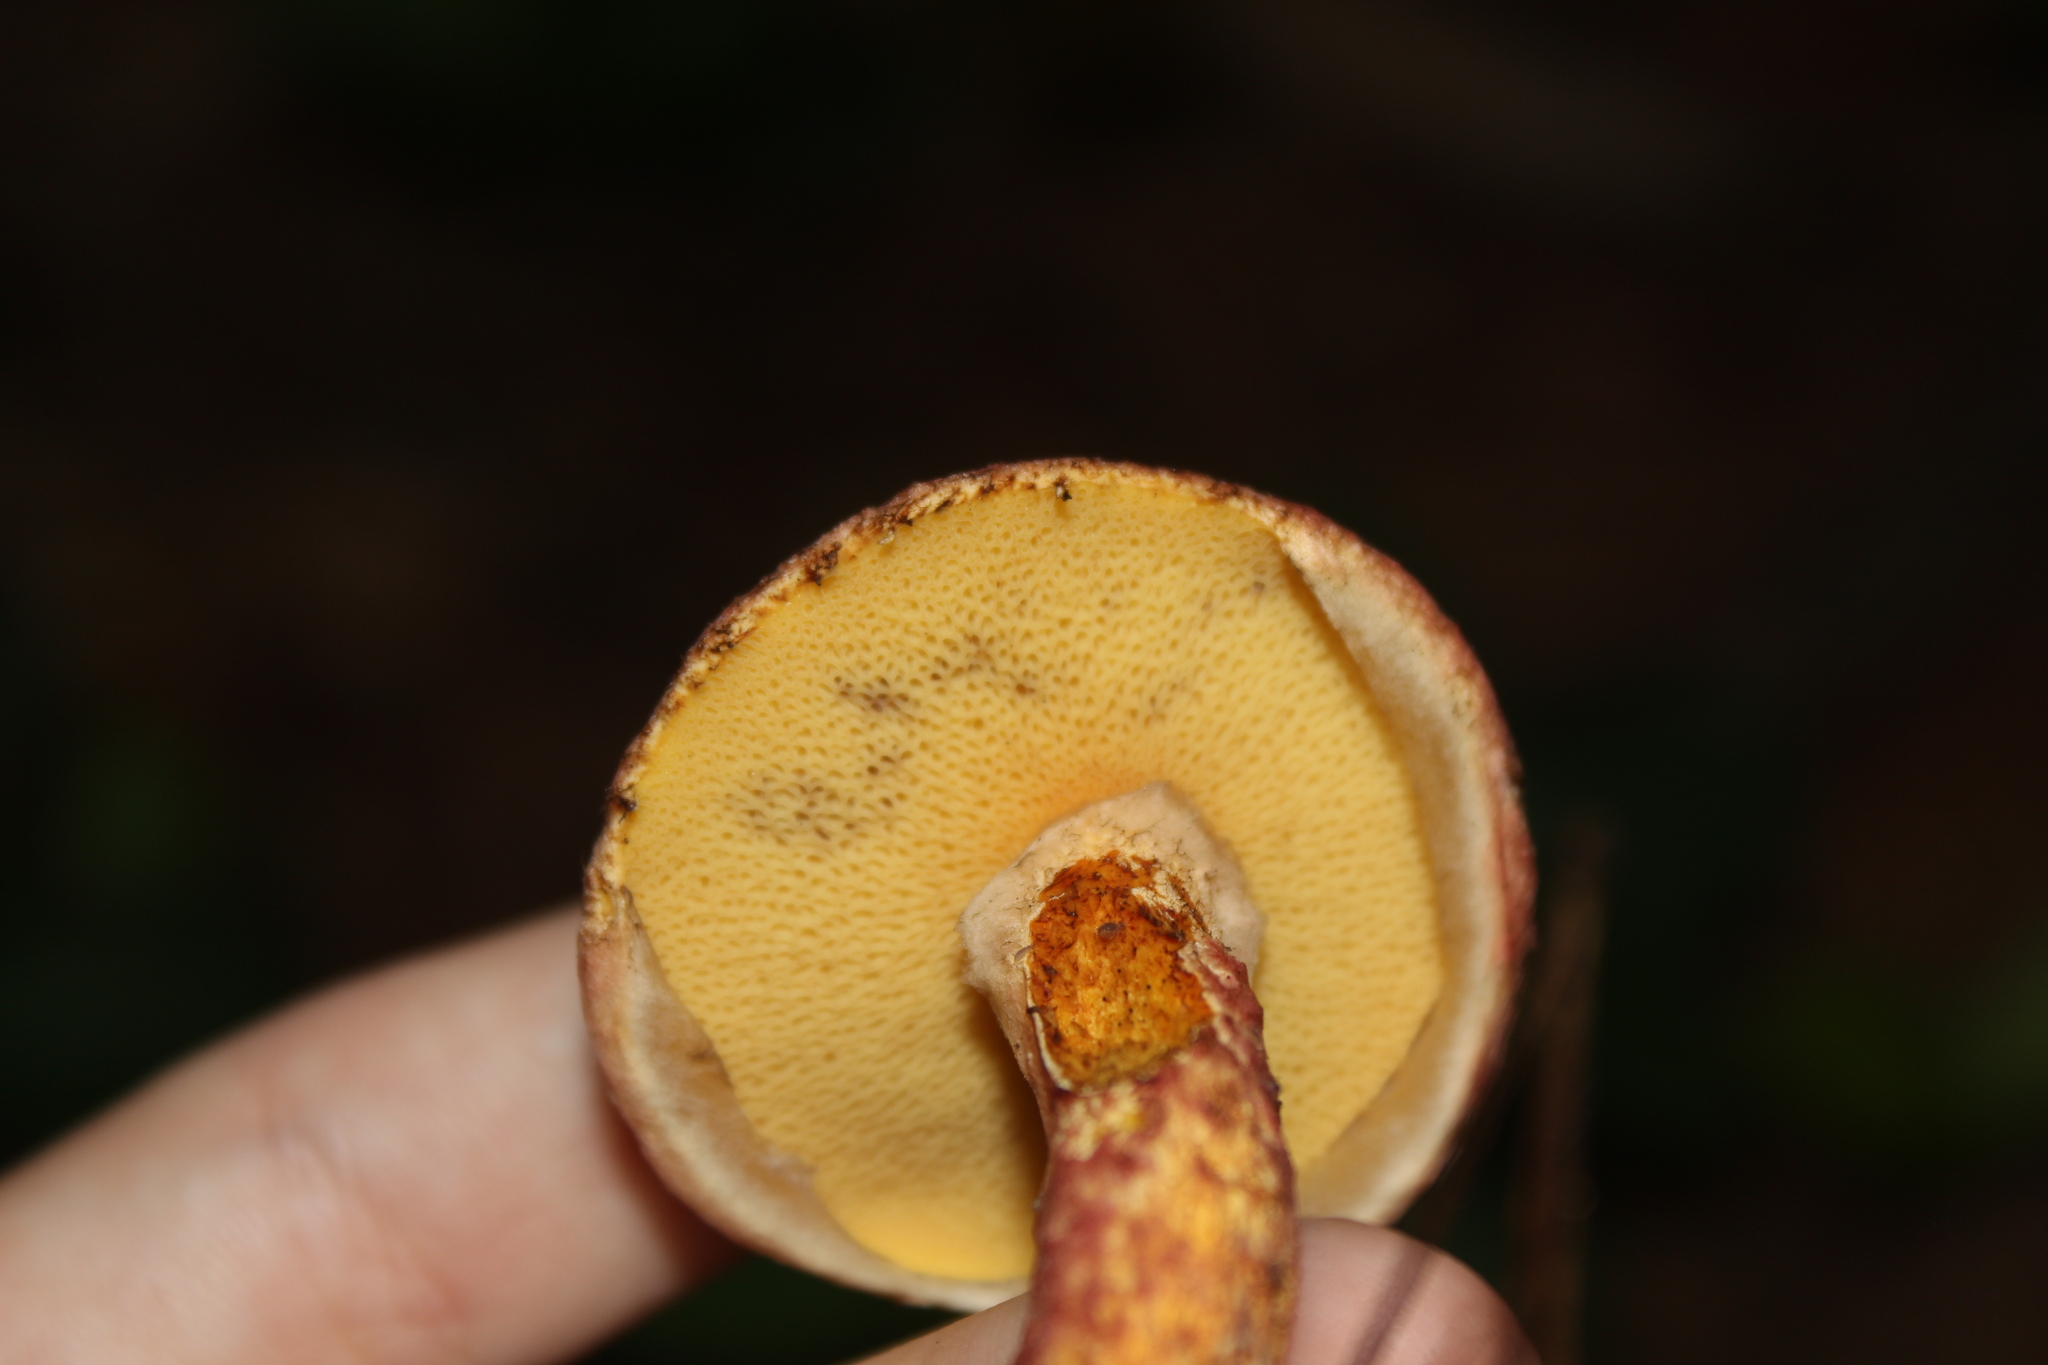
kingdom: Fungi
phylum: Basidiomycota
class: Agaricomycetes
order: Boletales
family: Suillaceae
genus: Suillus
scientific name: Suillus spraguei
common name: Painted suillus
